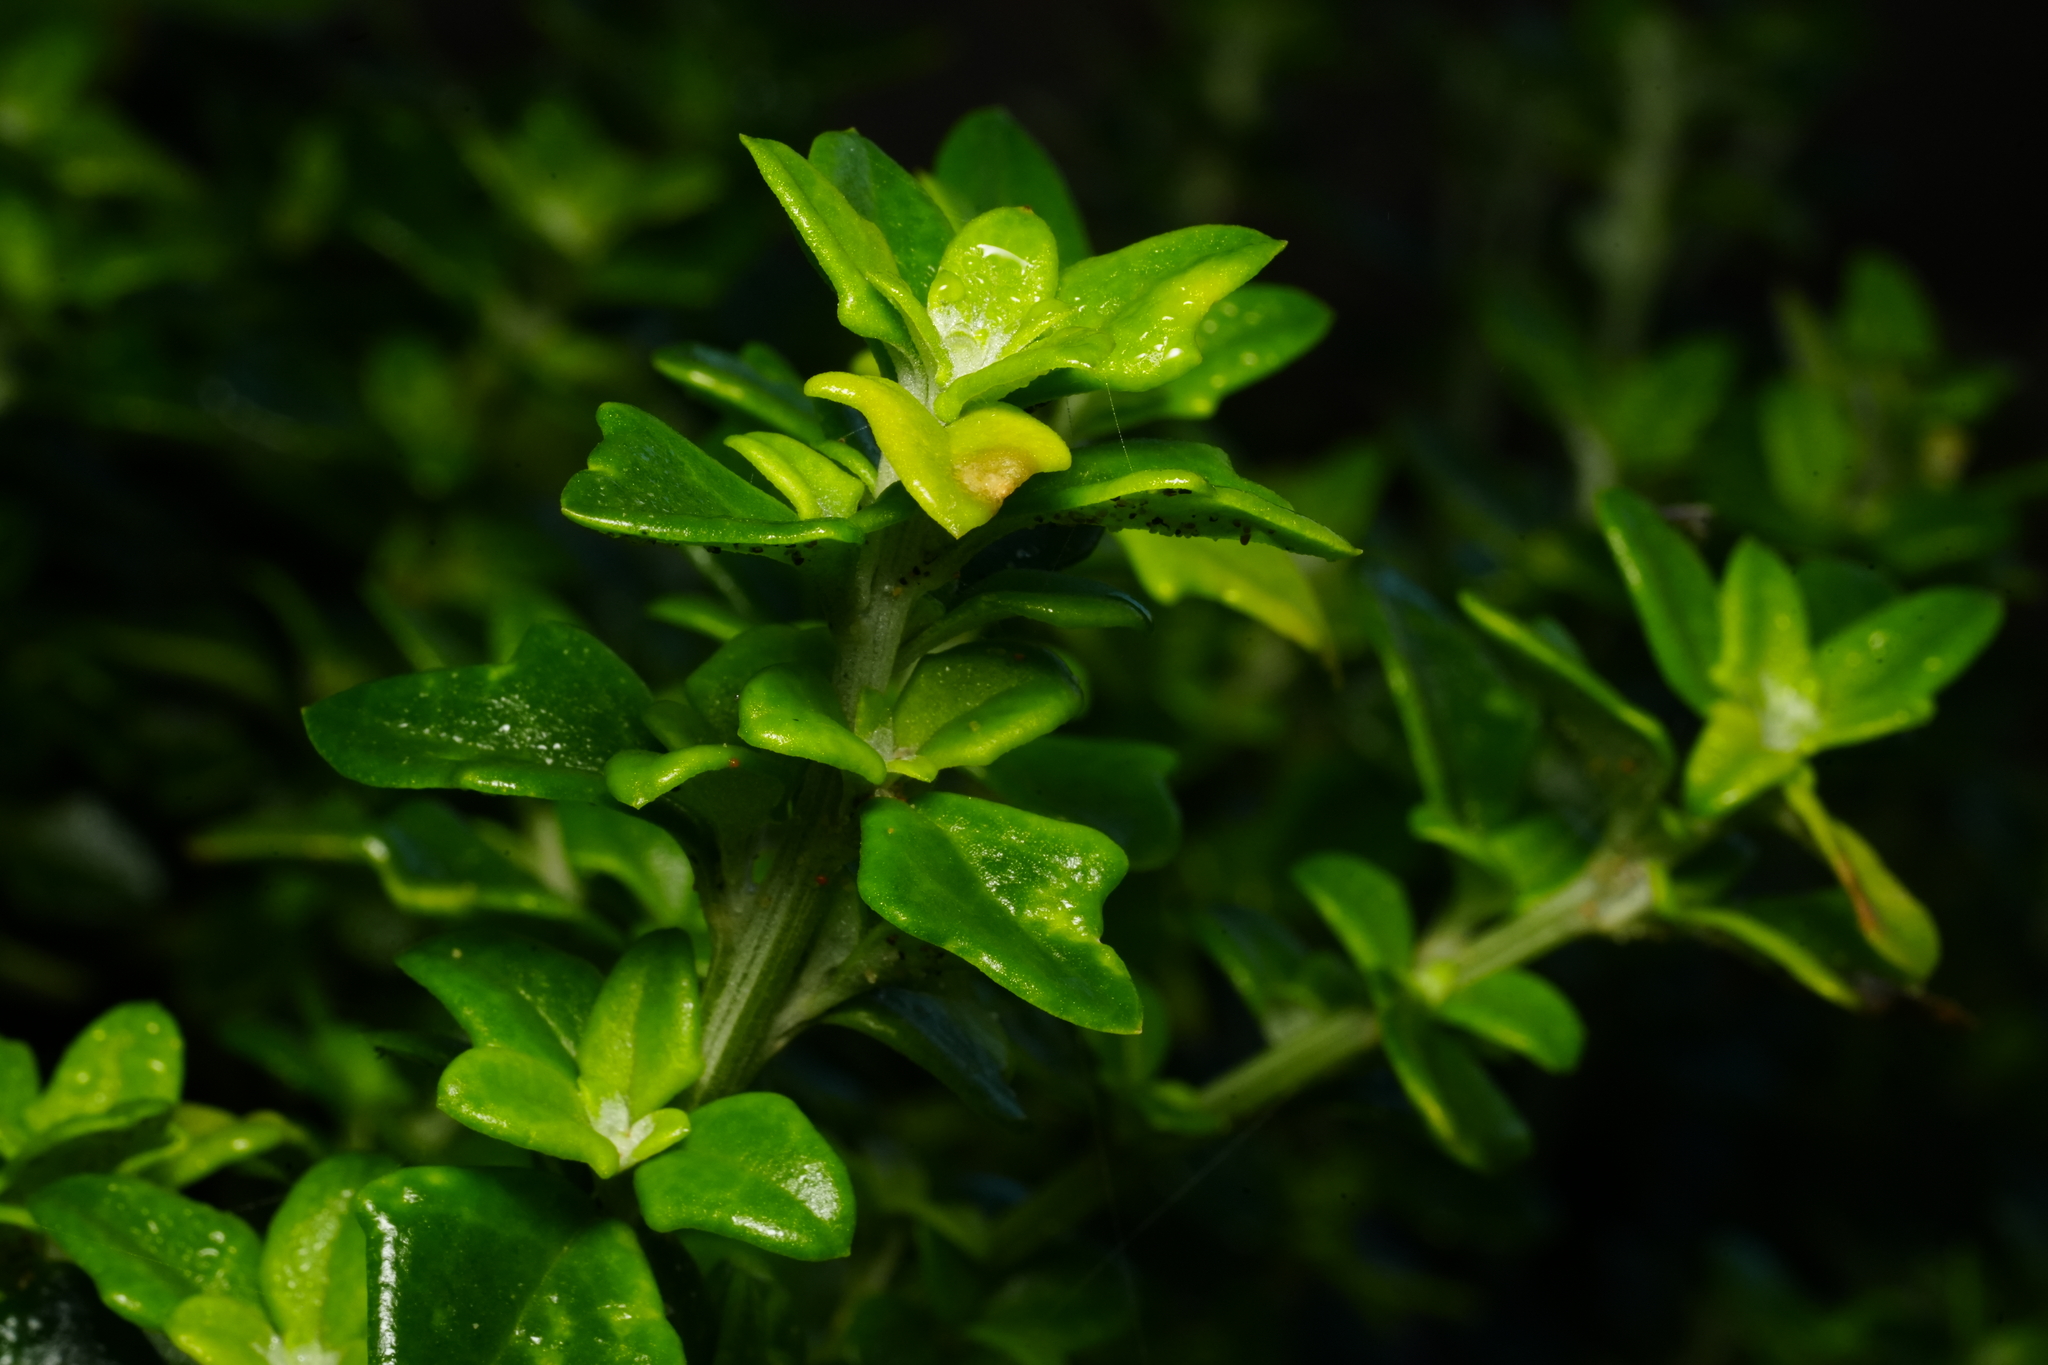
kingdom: Plantae
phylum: Tracheophyta
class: Magnoliopsida
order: Caryophyllales
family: Aizoaceae
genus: Tetragonia
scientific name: Tetragonia implexicoma
